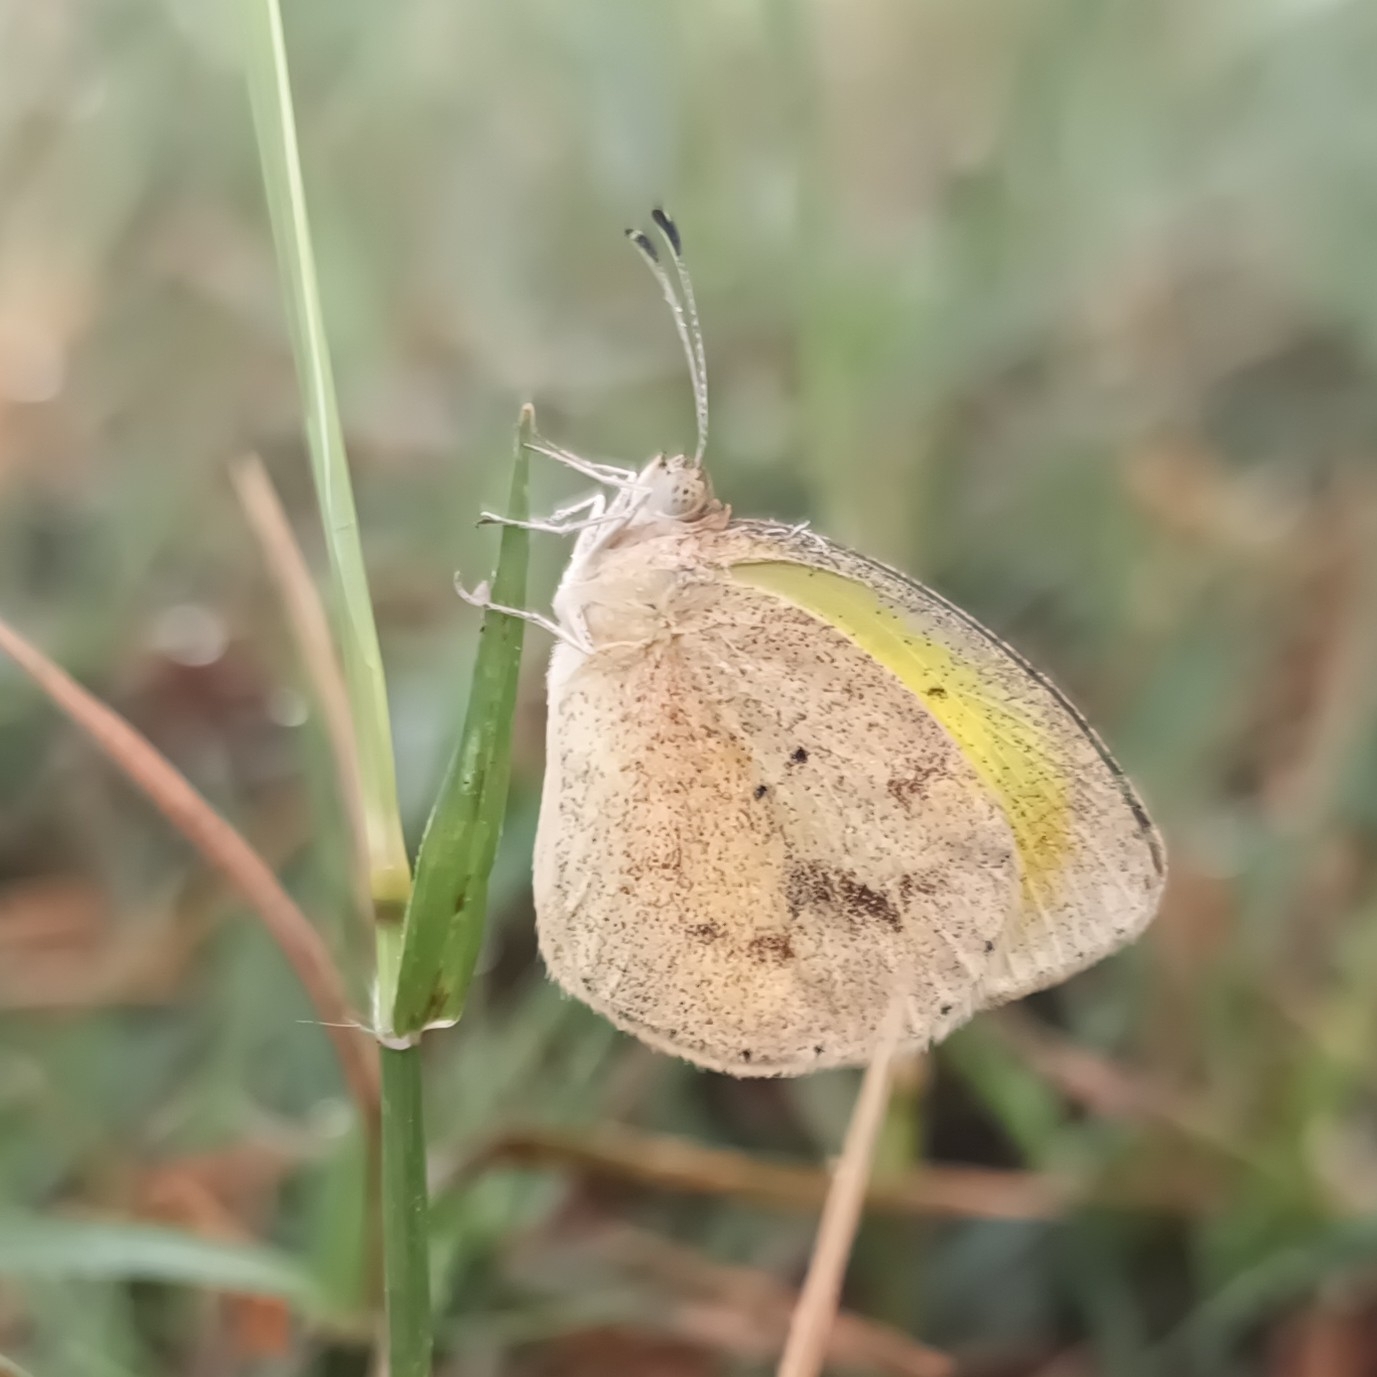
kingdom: Animalia
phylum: Arthropoda
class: Insecta
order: Lepidoptera
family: Pieridae
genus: Eurema
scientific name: Eurema daira
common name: Barred sulphur
